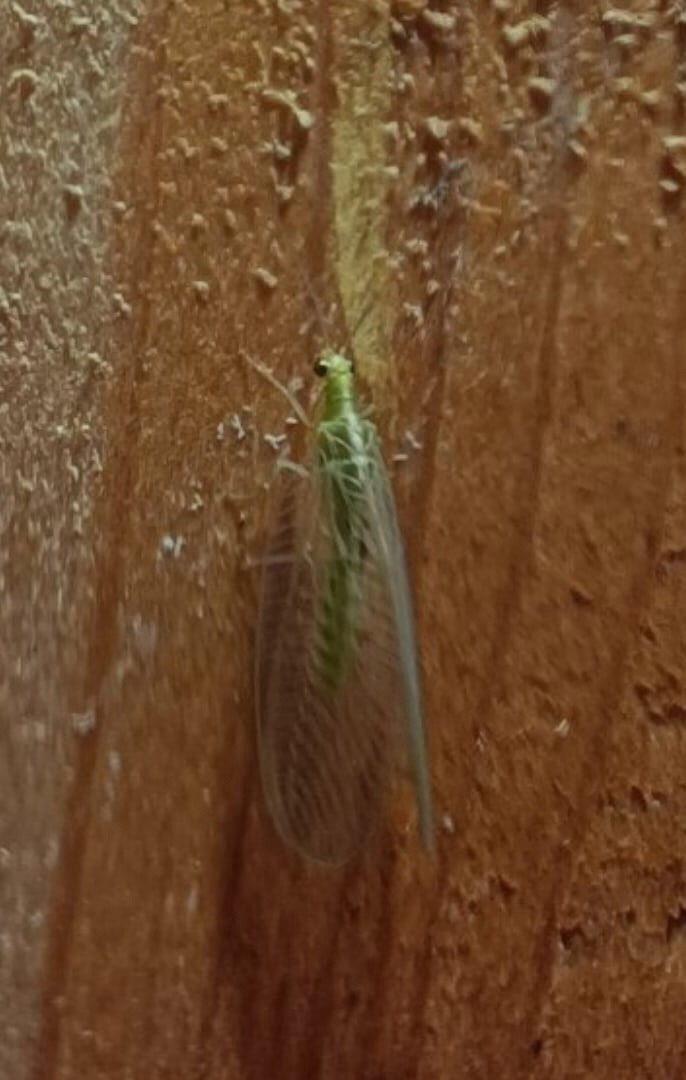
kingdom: Animalia
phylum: Arthropoda
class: Insecta
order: Neuroptera
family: Chrysopidae
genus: Chrysoperla
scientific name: Chrysoperla
